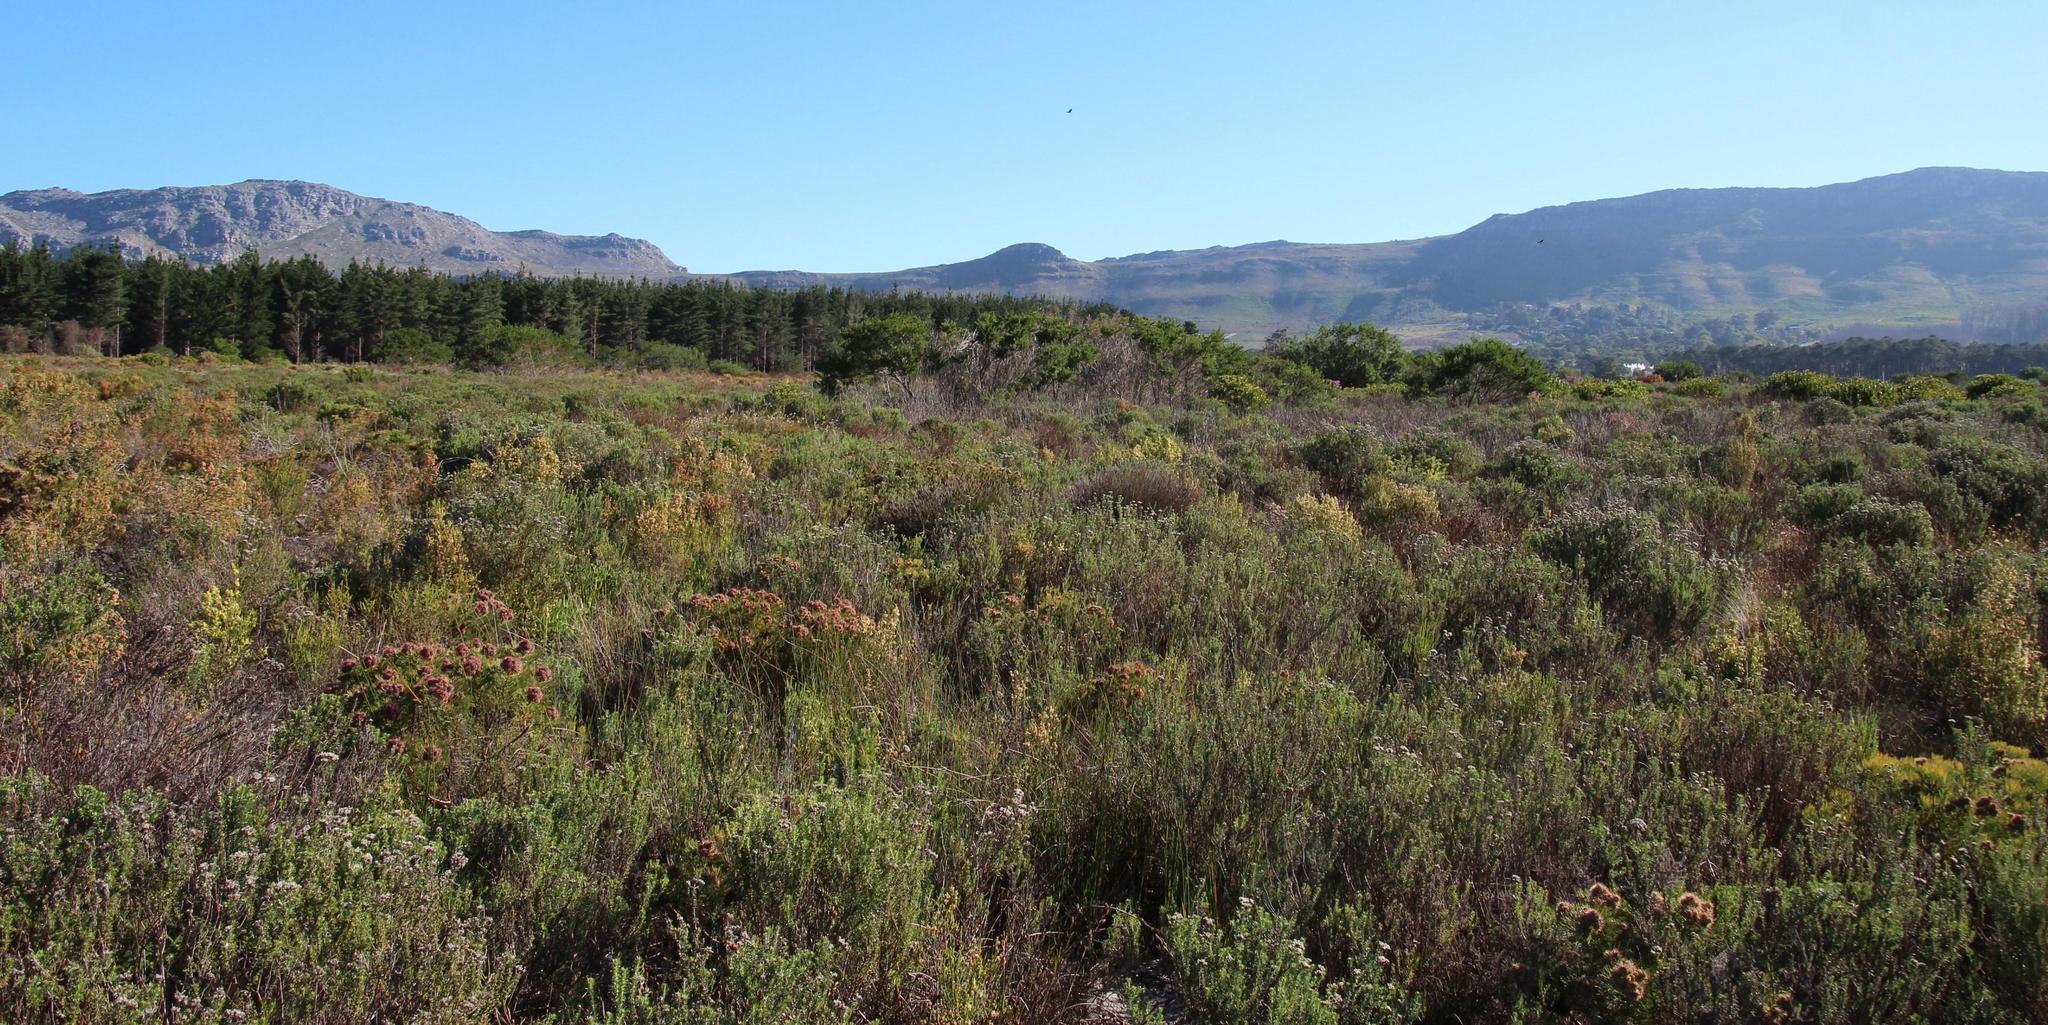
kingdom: Plantae
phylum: Tracheophyta
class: Magnoliopsida
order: Proteales
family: Proteaceae
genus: Serruria
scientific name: Serruria glomerata
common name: Cluster spiderhead
